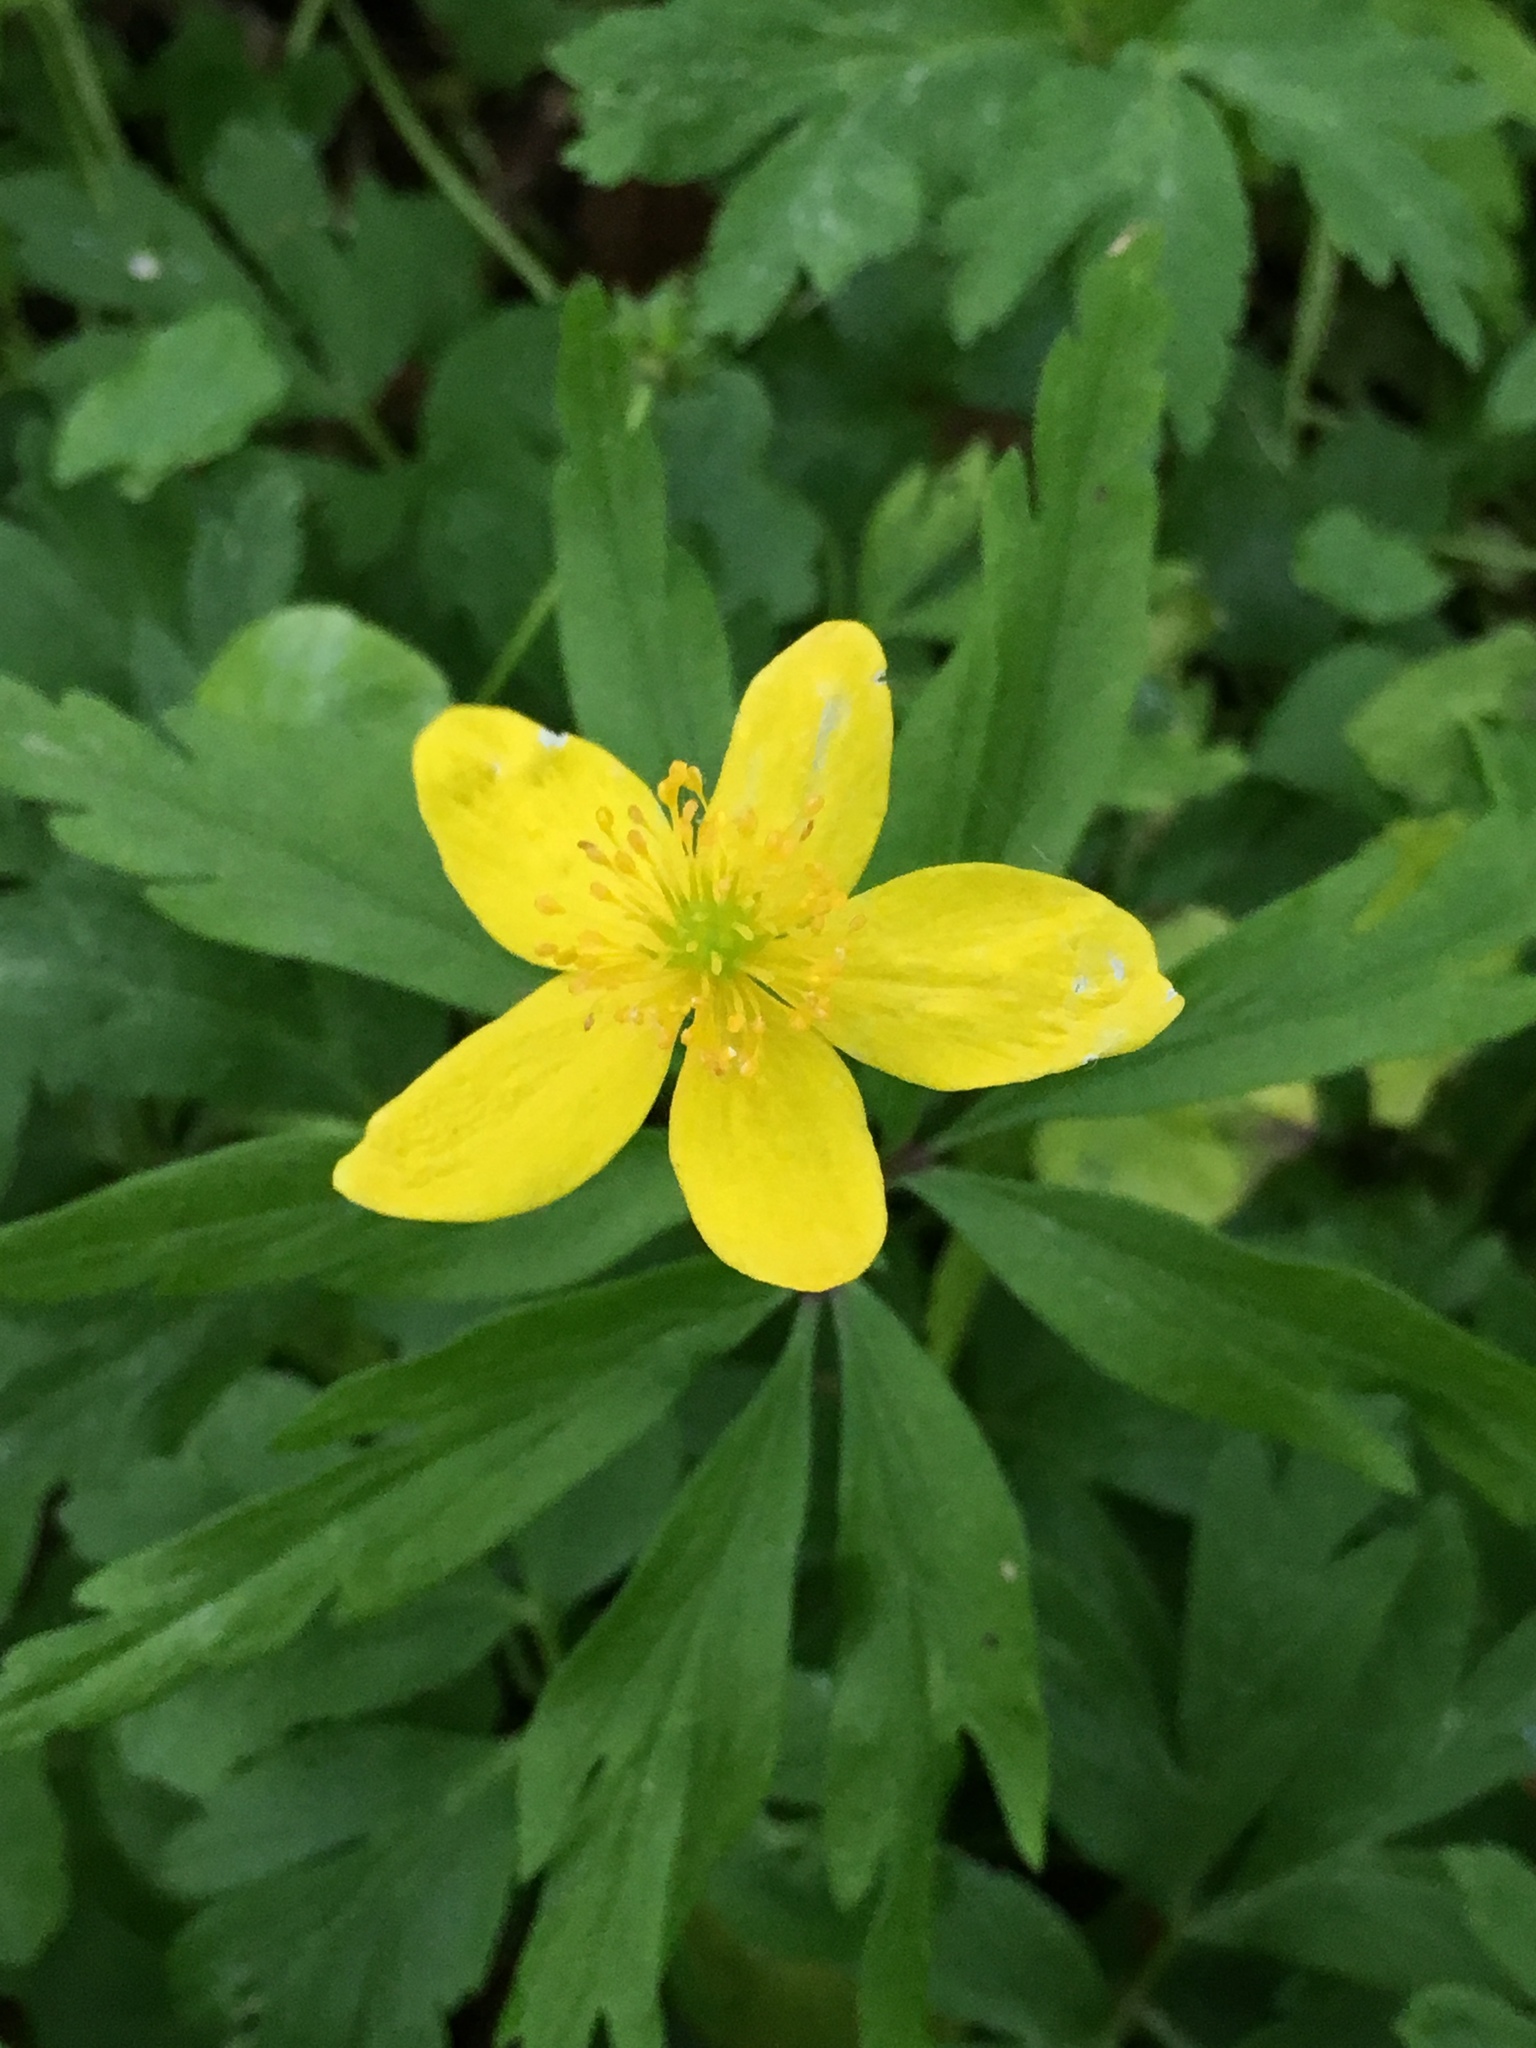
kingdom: Plantae
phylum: Tracheophyta
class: Magnoliopsida
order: Ranunculales
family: Ranunculaceae
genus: Anemone
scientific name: Anemone ranunculoides
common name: Yellow anemone
